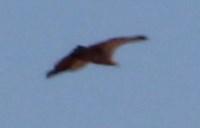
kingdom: Animalia
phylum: Chordata
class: Aves
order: Accipitriformes
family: Accipitridae
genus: Gyps
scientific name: Gyps coprotheres
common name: Cape vulture
